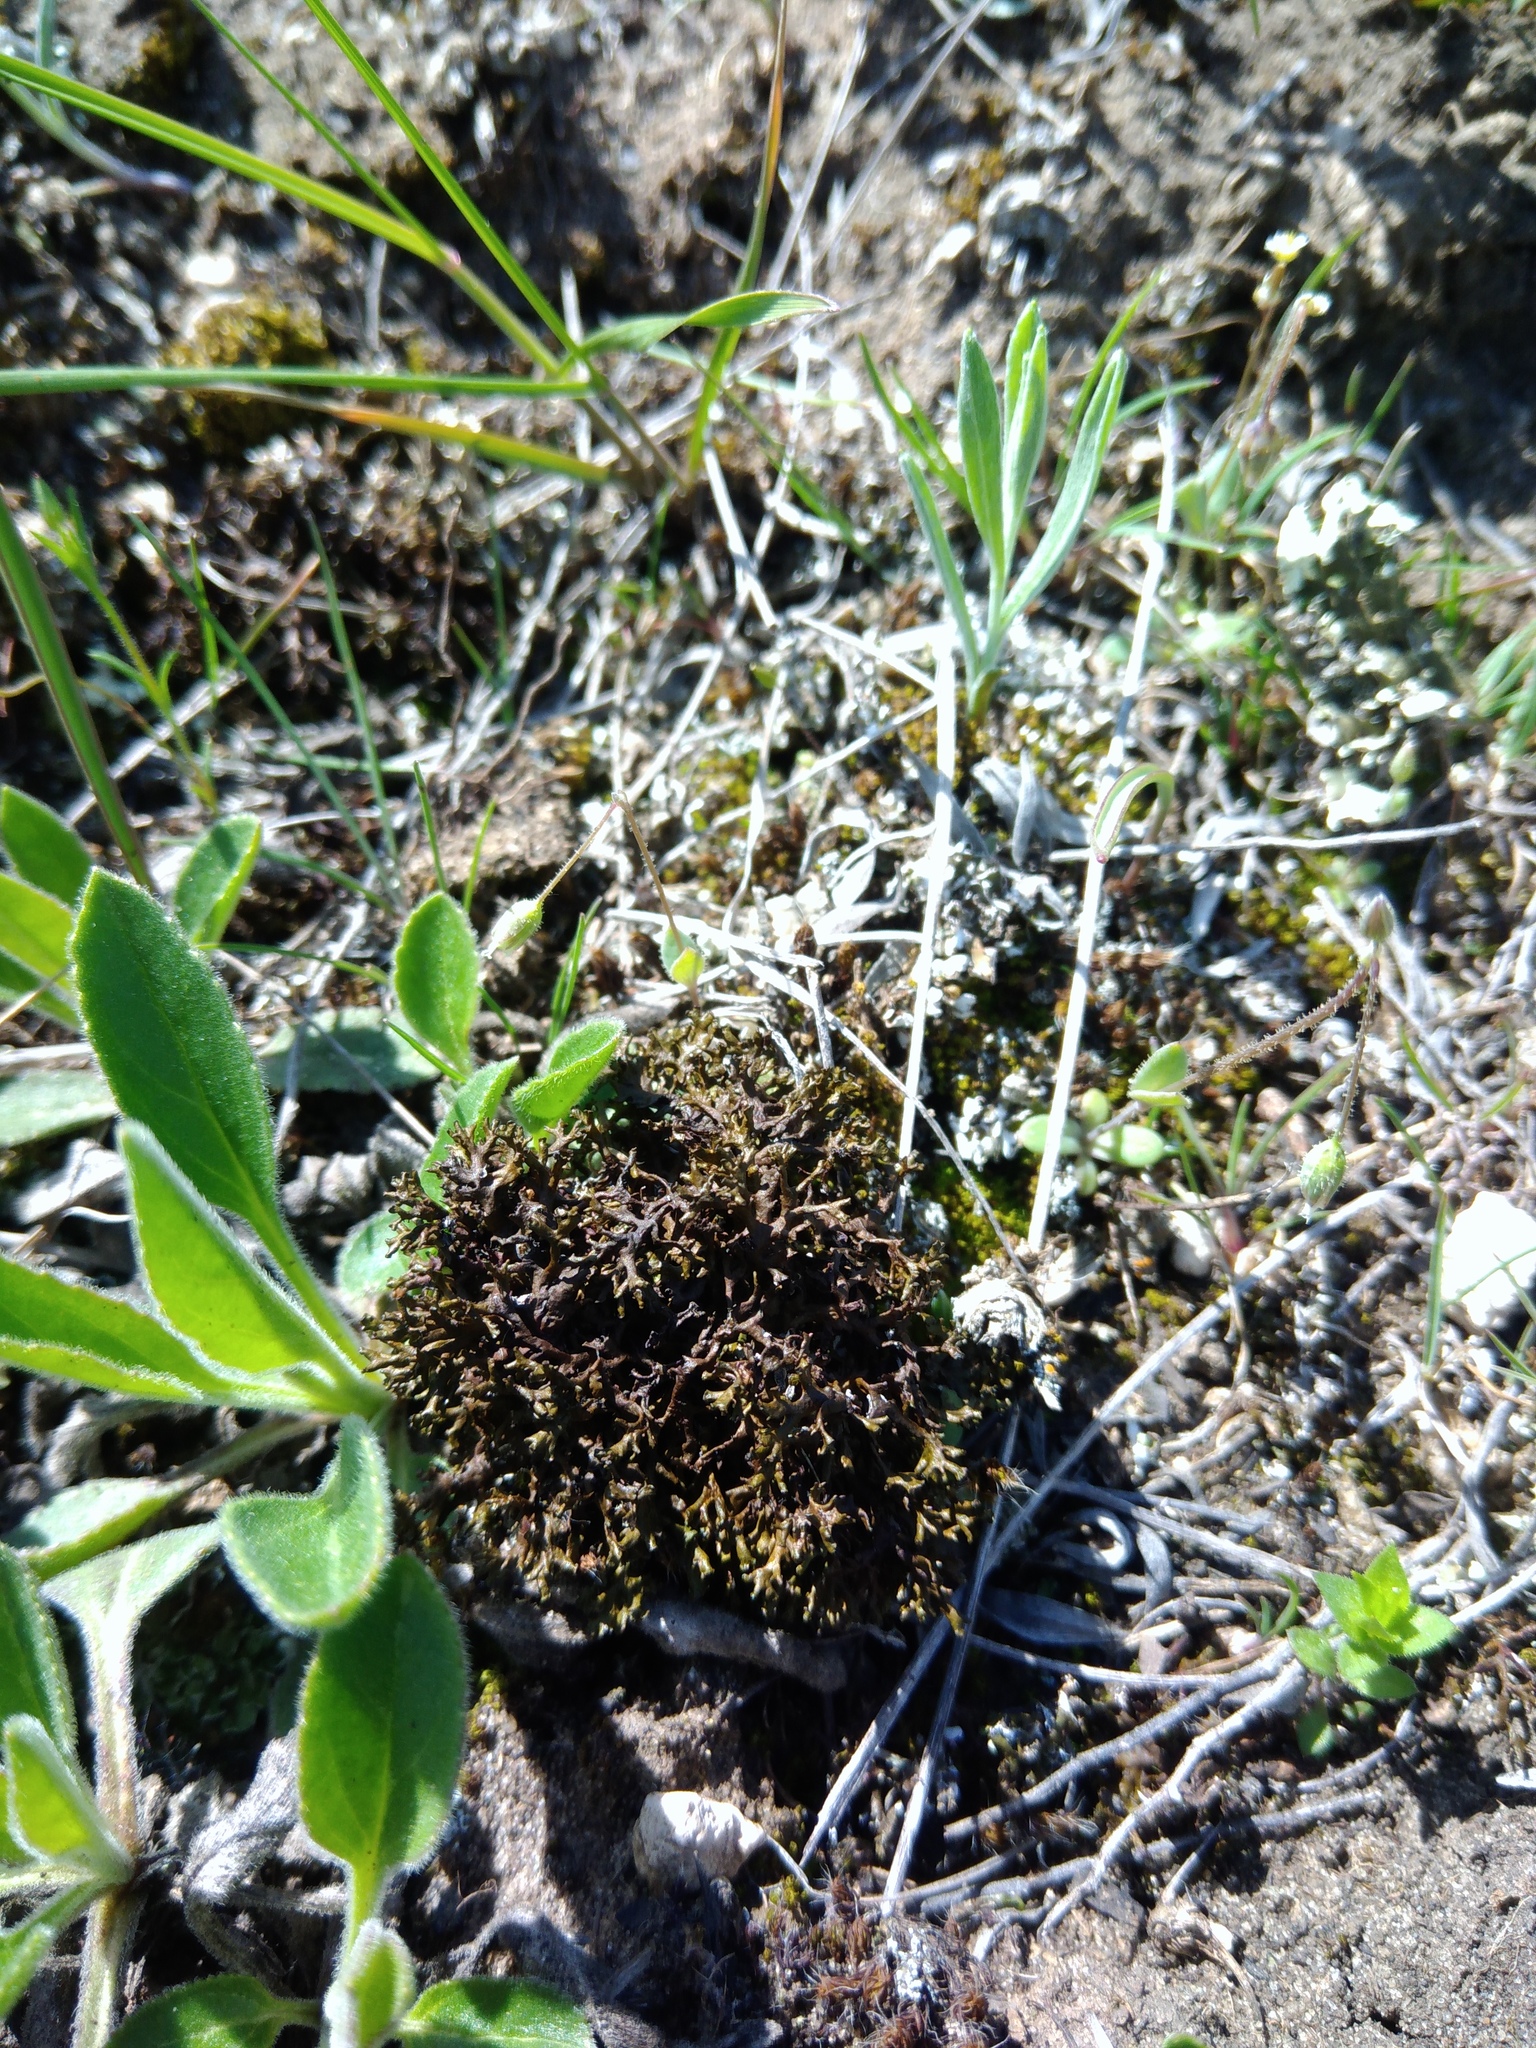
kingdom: Fungi
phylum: Ascomycota
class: Lecanoromycetes
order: Lecanorales
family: Parmeliaceae
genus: Xanthoparmelia
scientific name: Xanthoparmelia pokornyi
